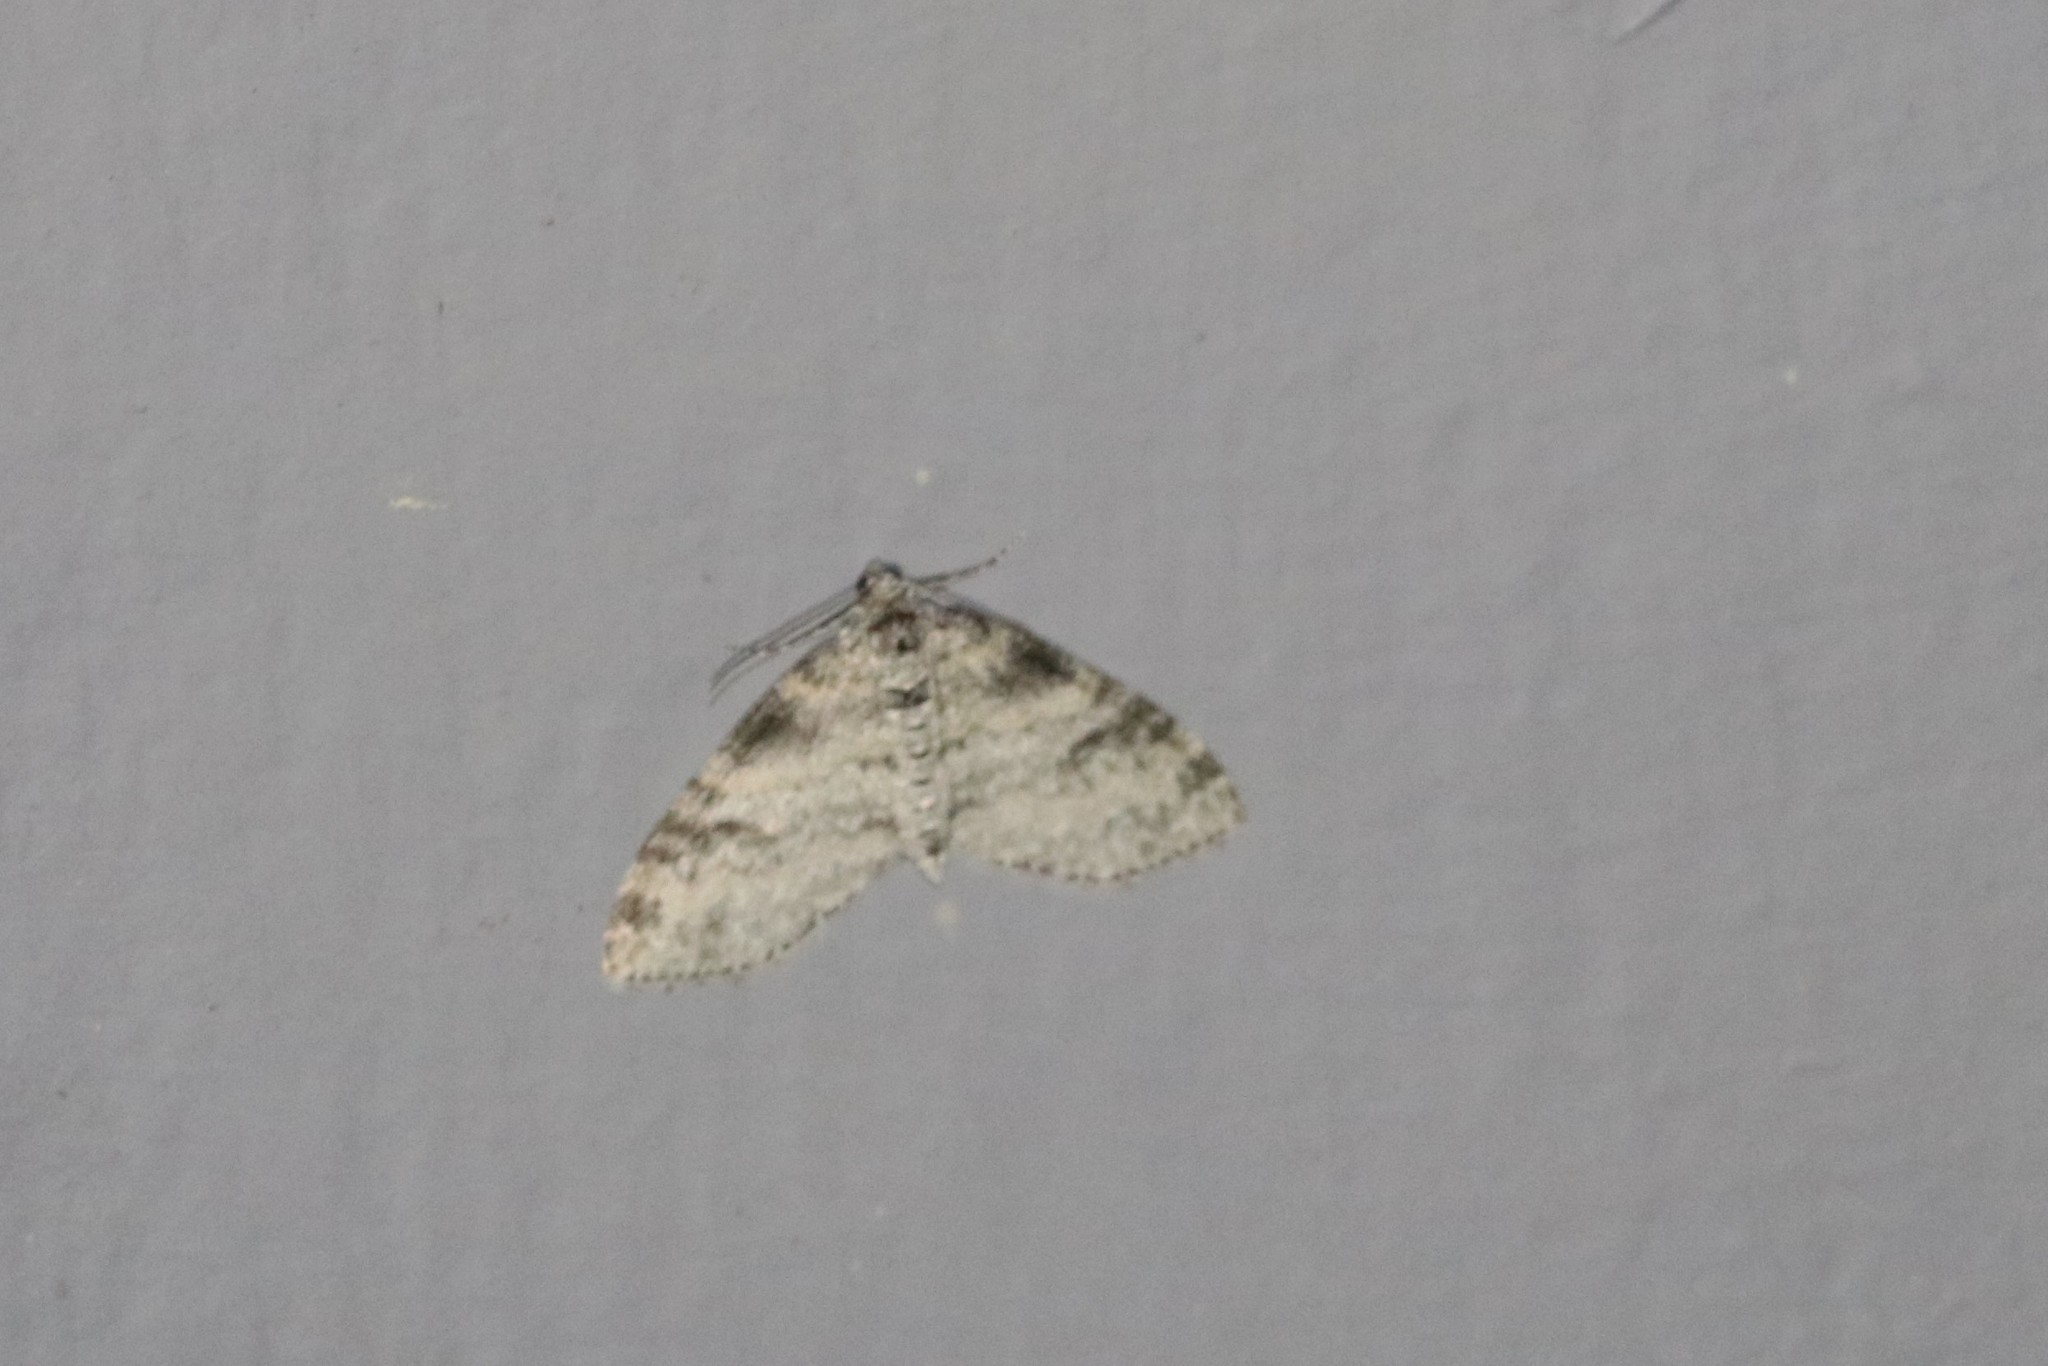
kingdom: Animalia
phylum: Arthropoda
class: Insecta
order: Lepidoptera
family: Geometridae
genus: Lobophora
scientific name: Lobophora nivigerata
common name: Powdered bigwing
